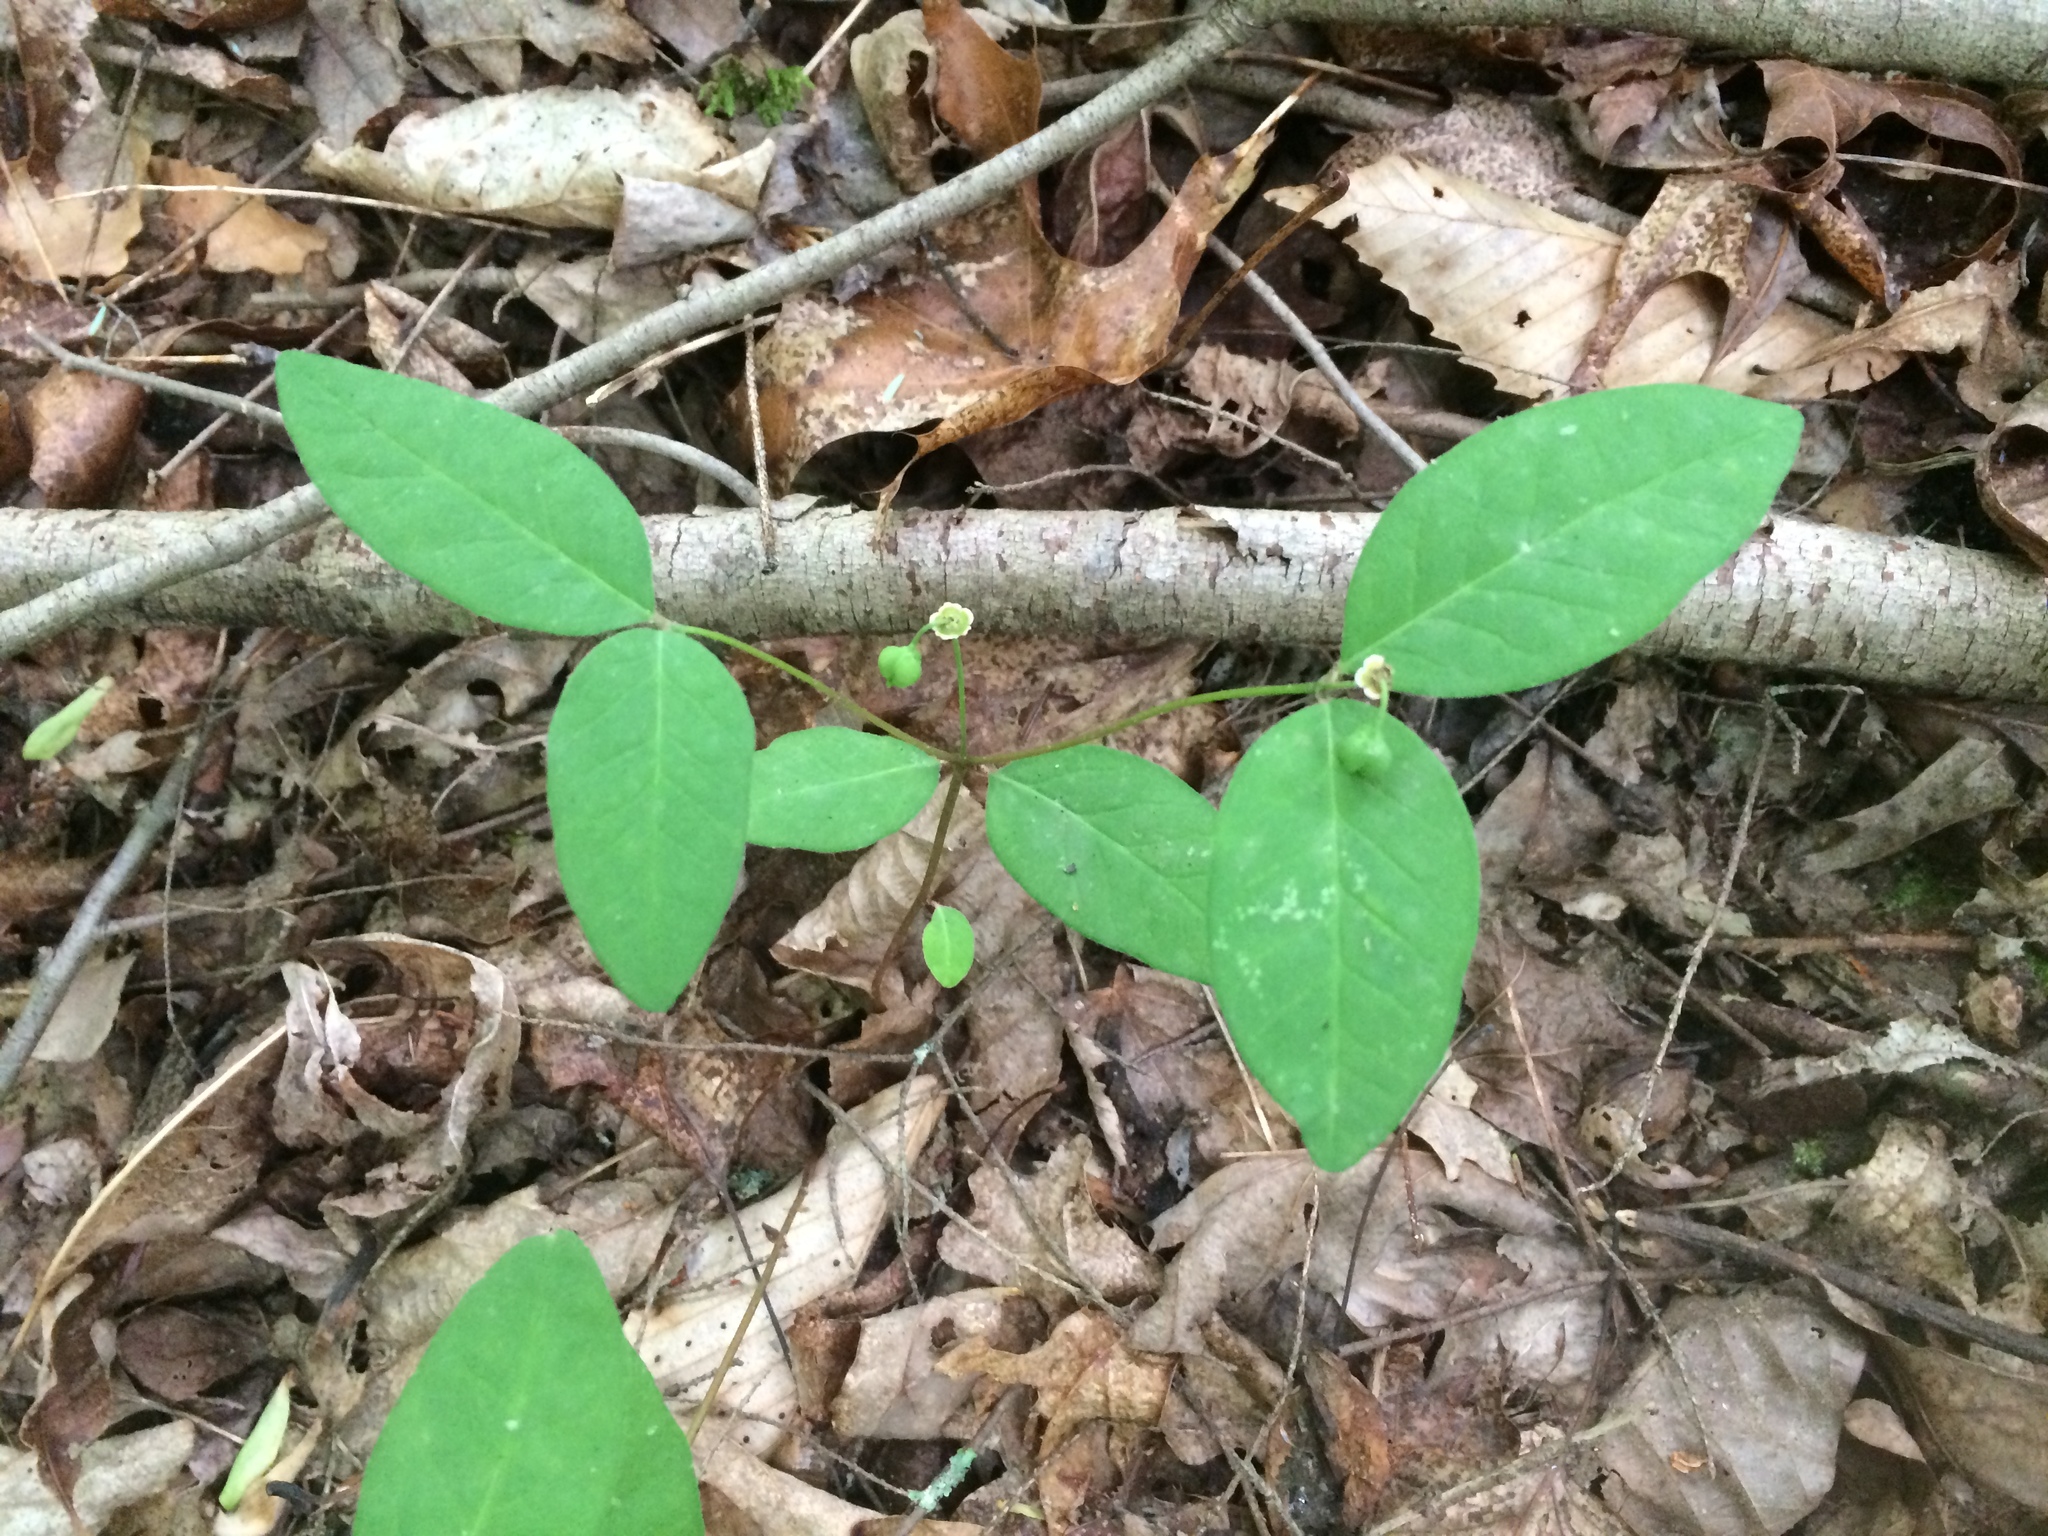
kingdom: Plantae
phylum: Tracheophyta
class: Magnoliopsida
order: Malpighiales
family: Euphorbiaceae
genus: Euphorbia
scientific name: Euphorbia mercurialina
